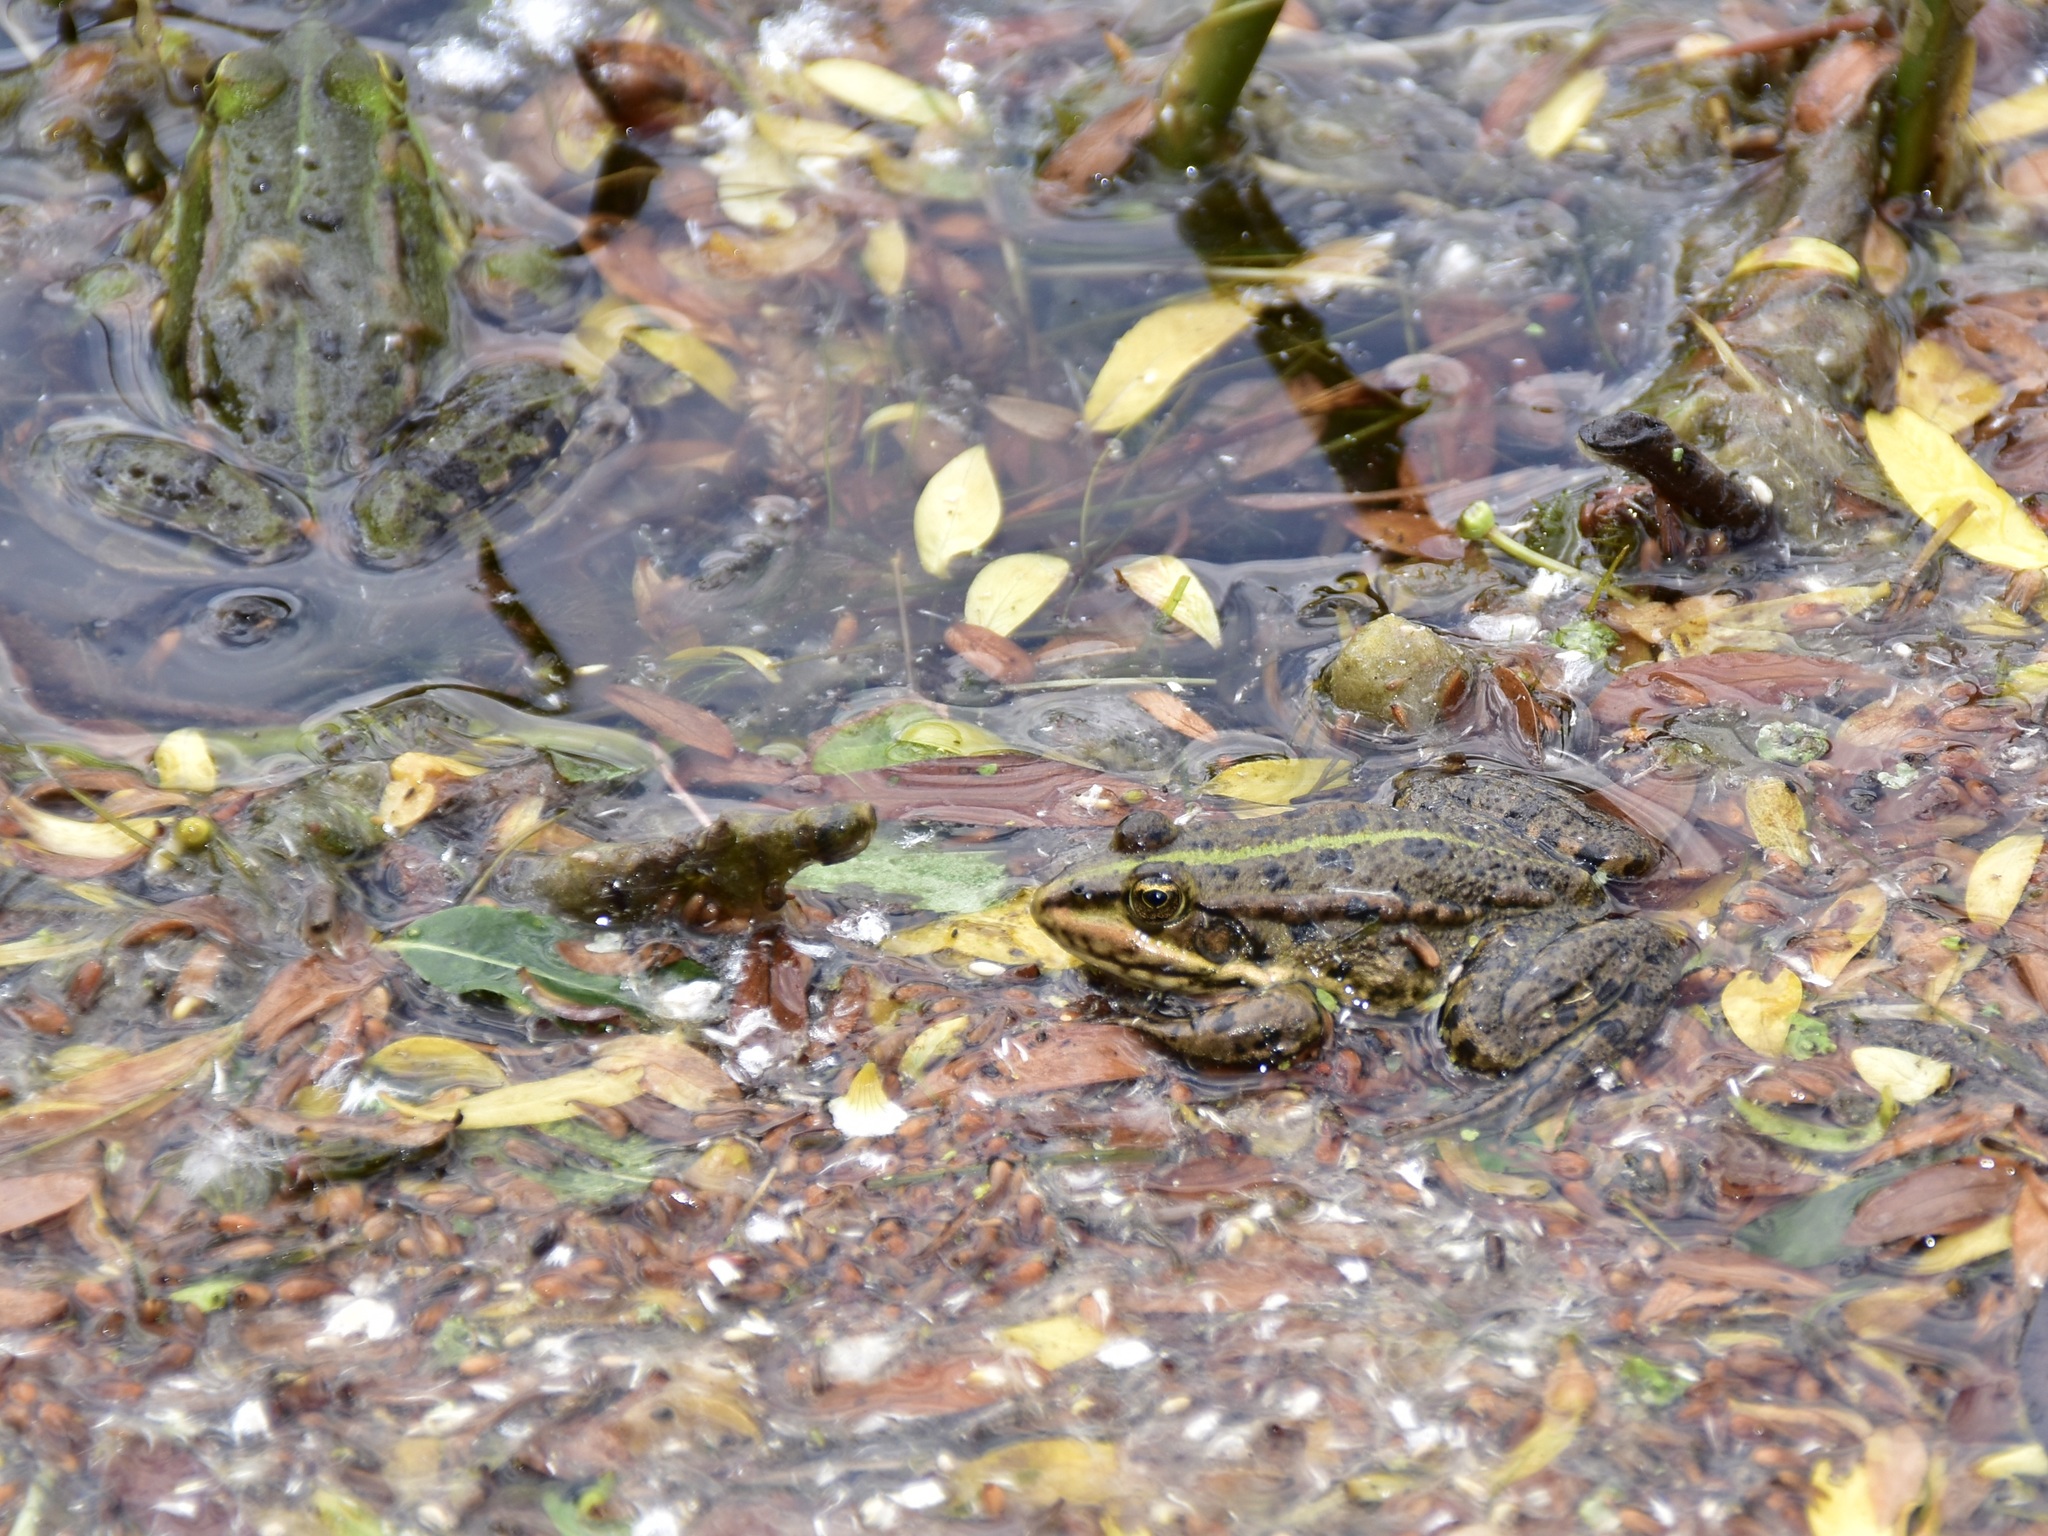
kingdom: Animalia
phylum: Chordata
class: Amphibia
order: Anura
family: Ranidae
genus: Pelophylax
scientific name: Pelophylax
